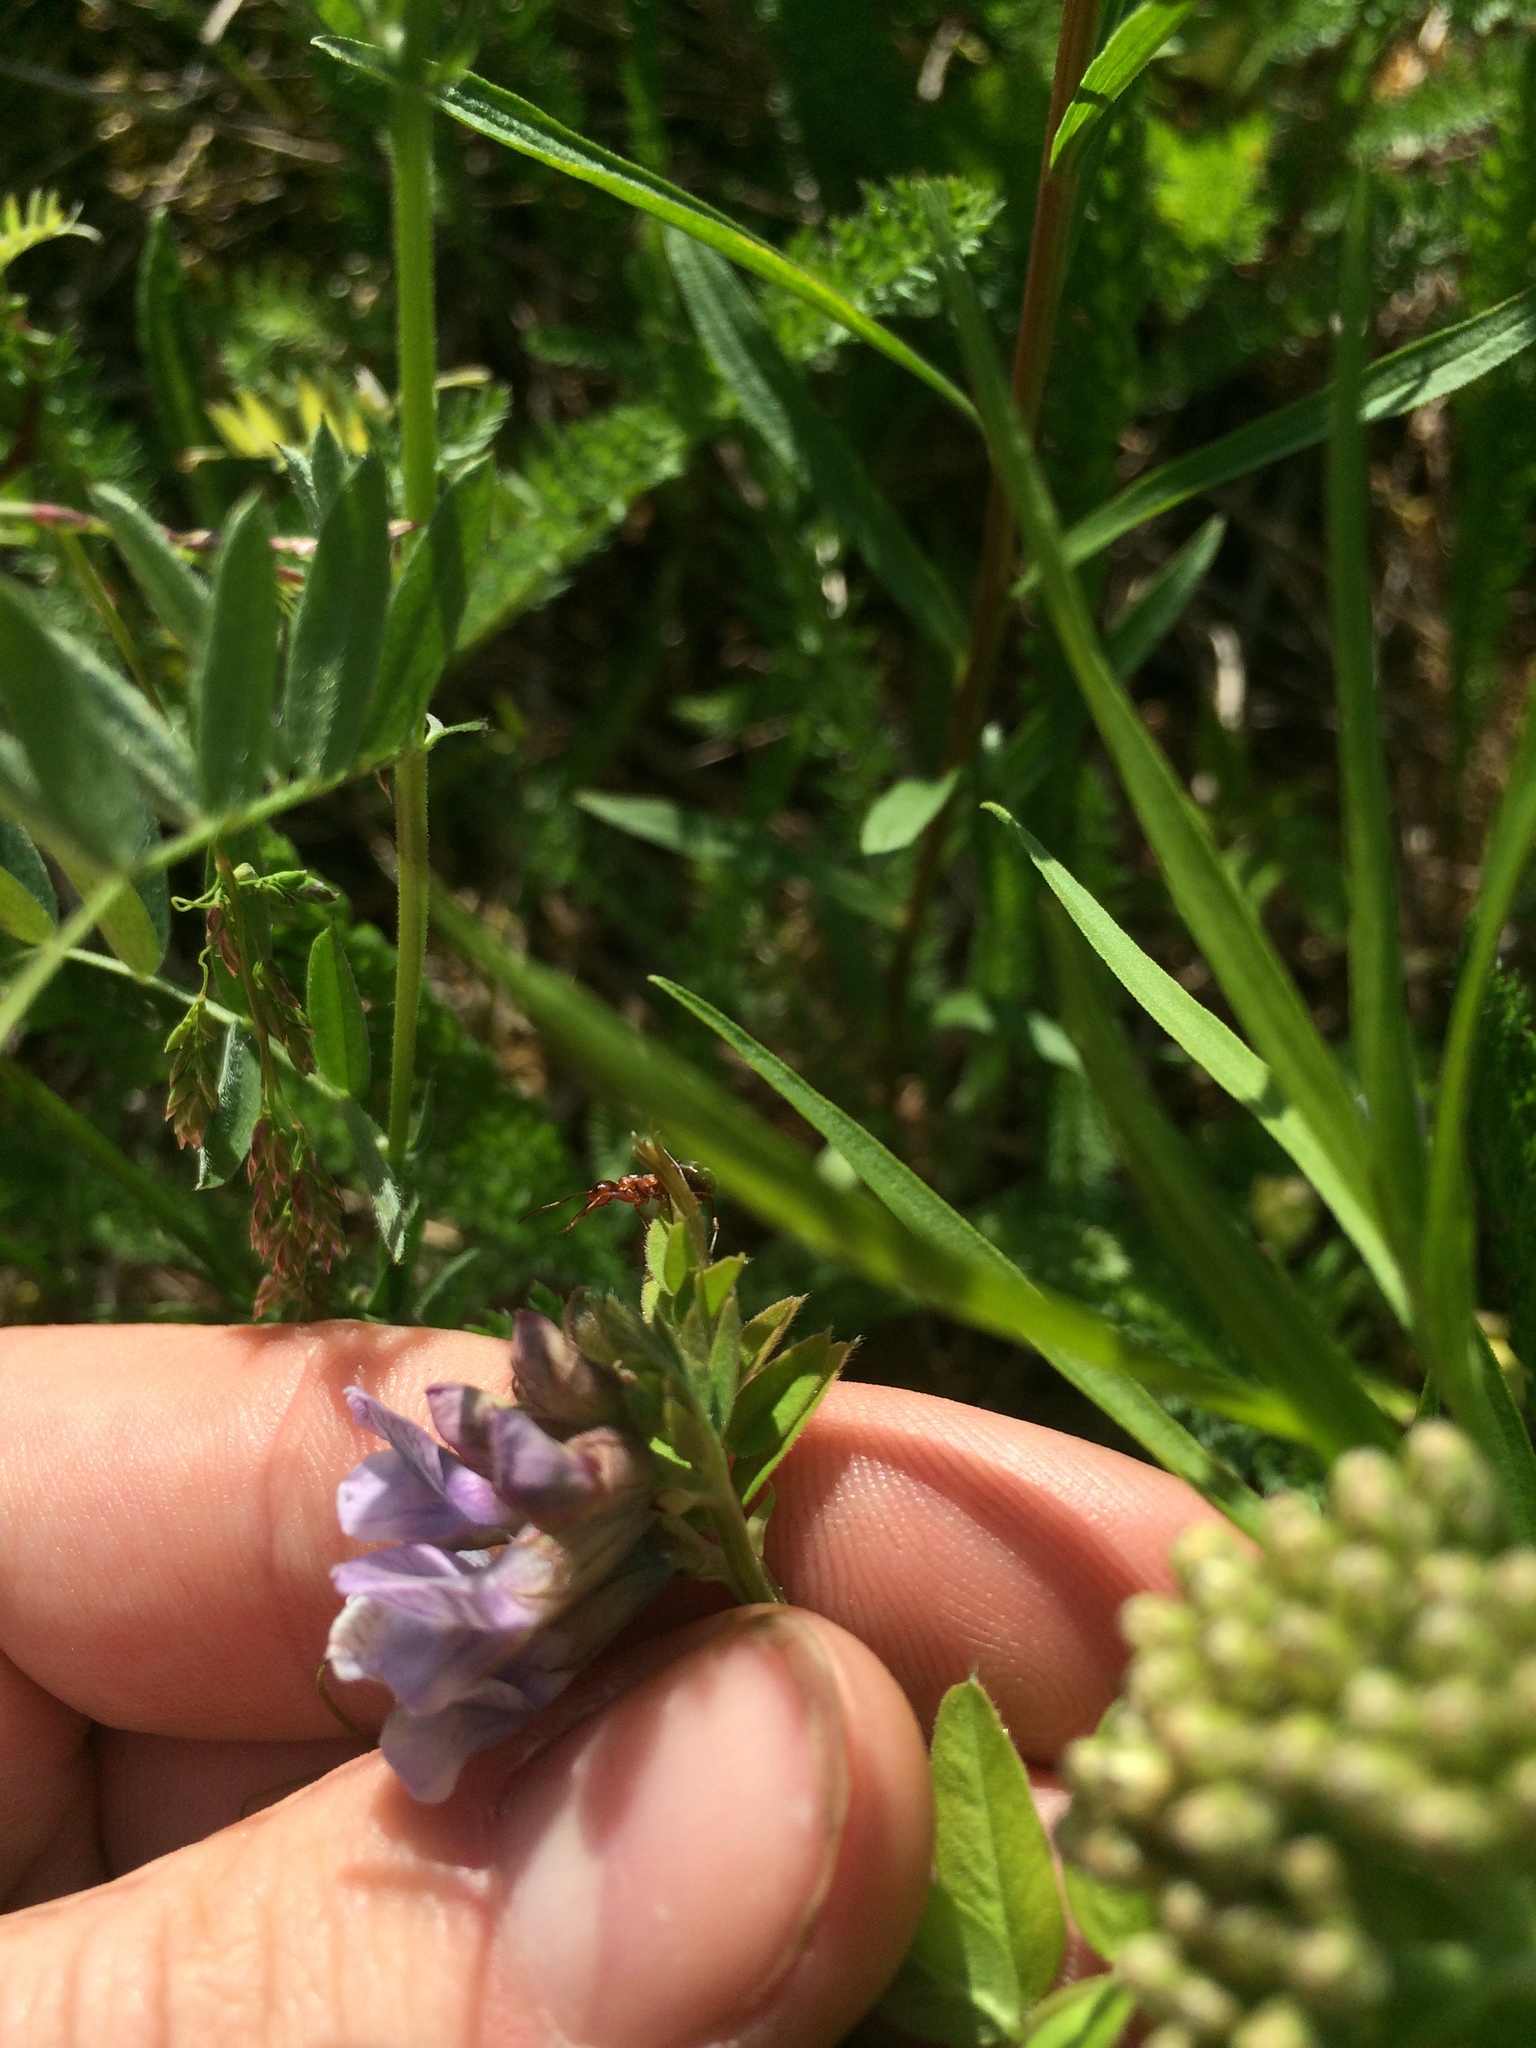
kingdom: Plantae
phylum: Tracheophyta
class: Magnoliopsida
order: Fabales
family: Fabaceae
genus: Vicia
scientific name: Vicia sepium
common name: Bush vetch
